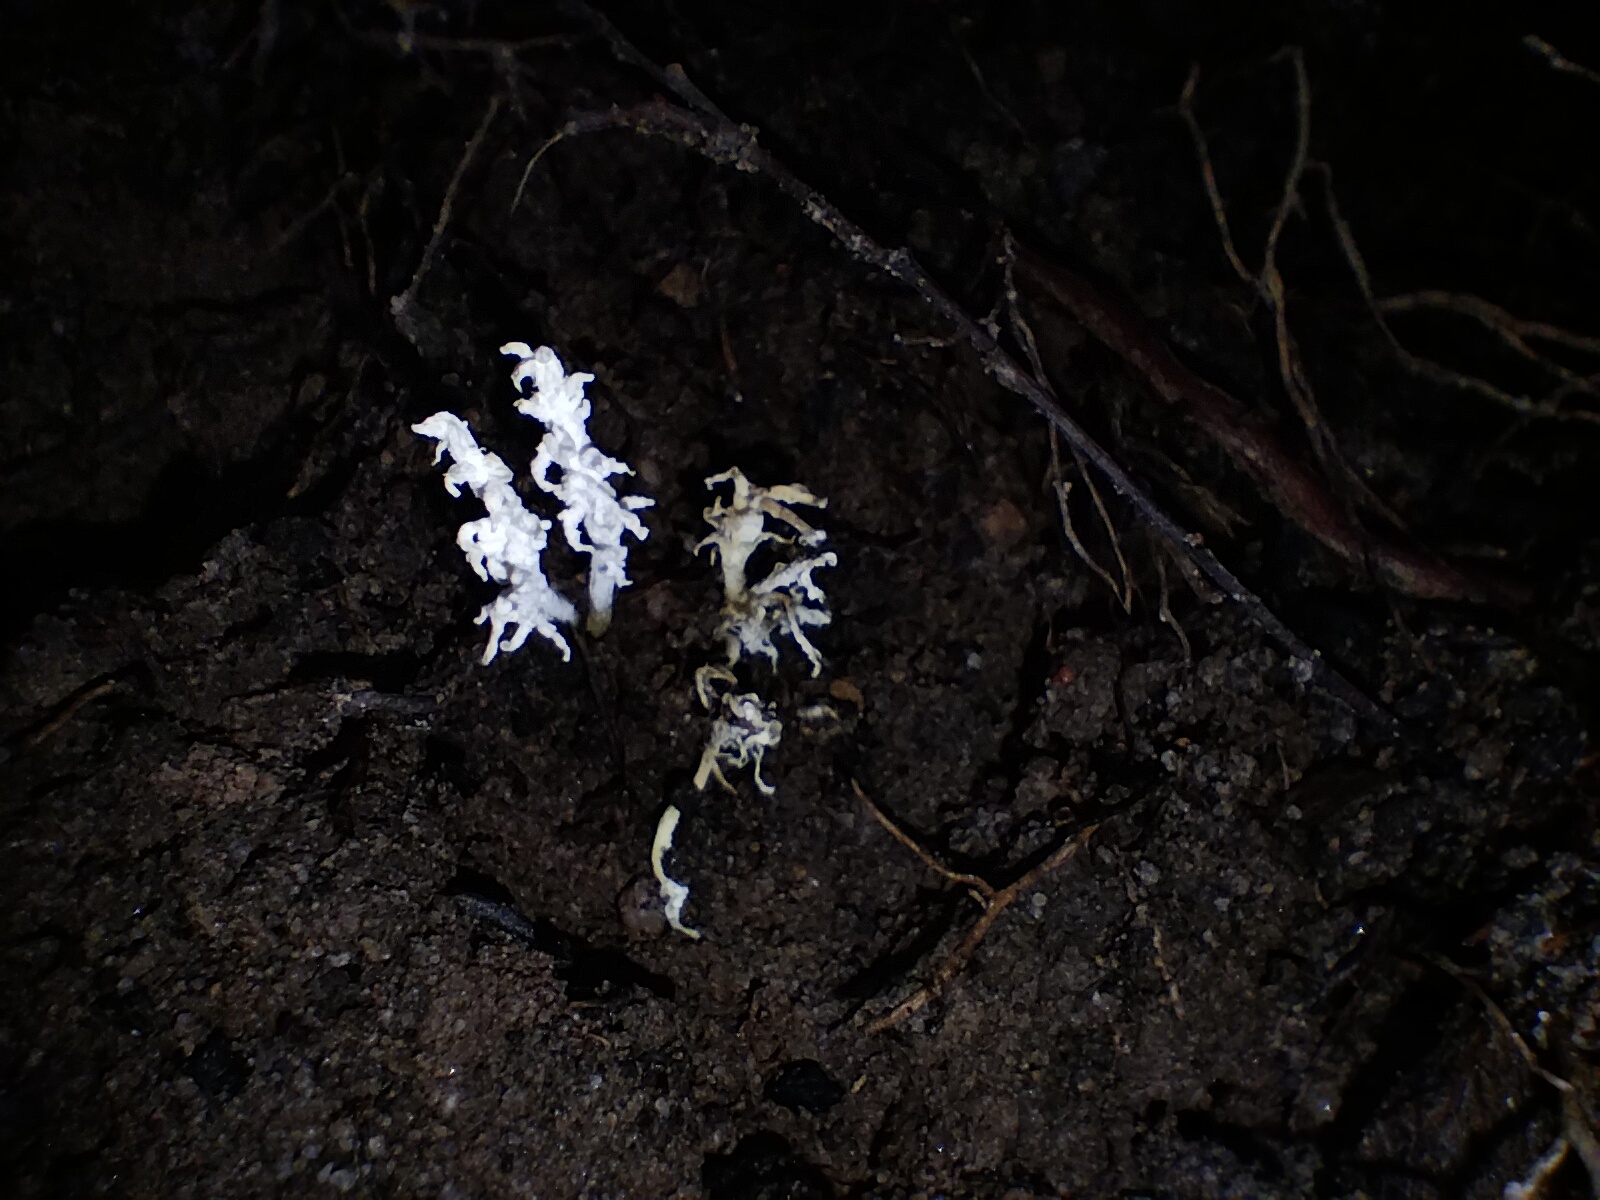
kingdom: Fungi
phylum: Ascomycota
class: Sordariomycetes
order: Hypocreales
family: Cordycipitaceae
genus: Cordyceps
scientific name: Cordyceps tenuipes
